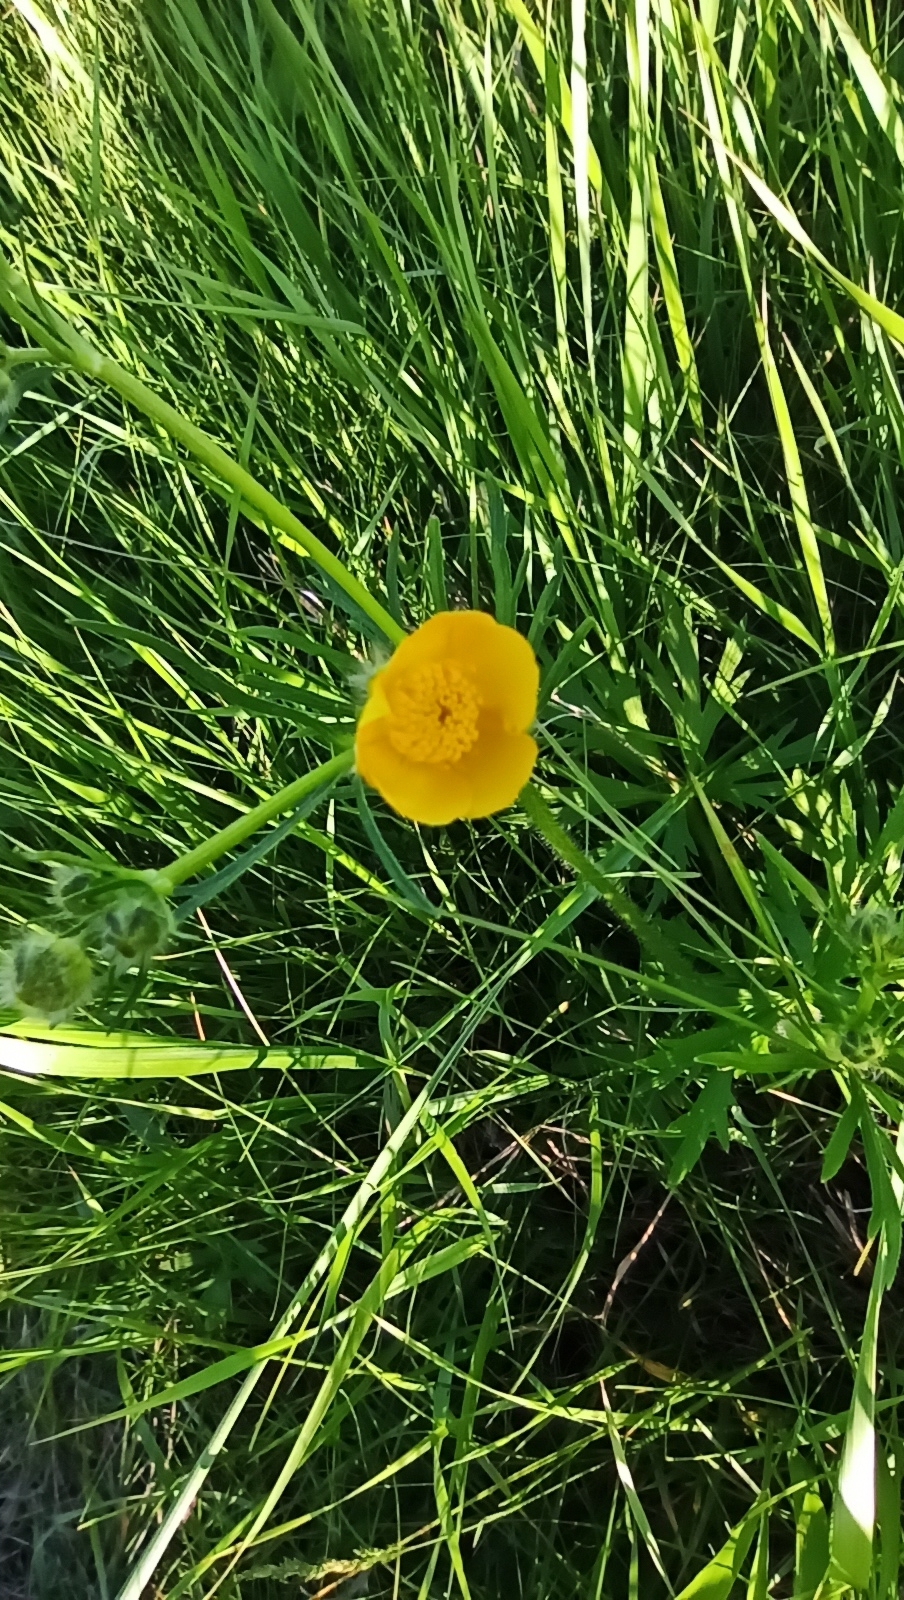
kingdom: Plantae
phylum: Tracheophyta
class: Magnoliopsida
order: Ranunculales
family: Ranunculaceae
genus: Ranunculus
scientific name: Ranunculus polyanthemos
